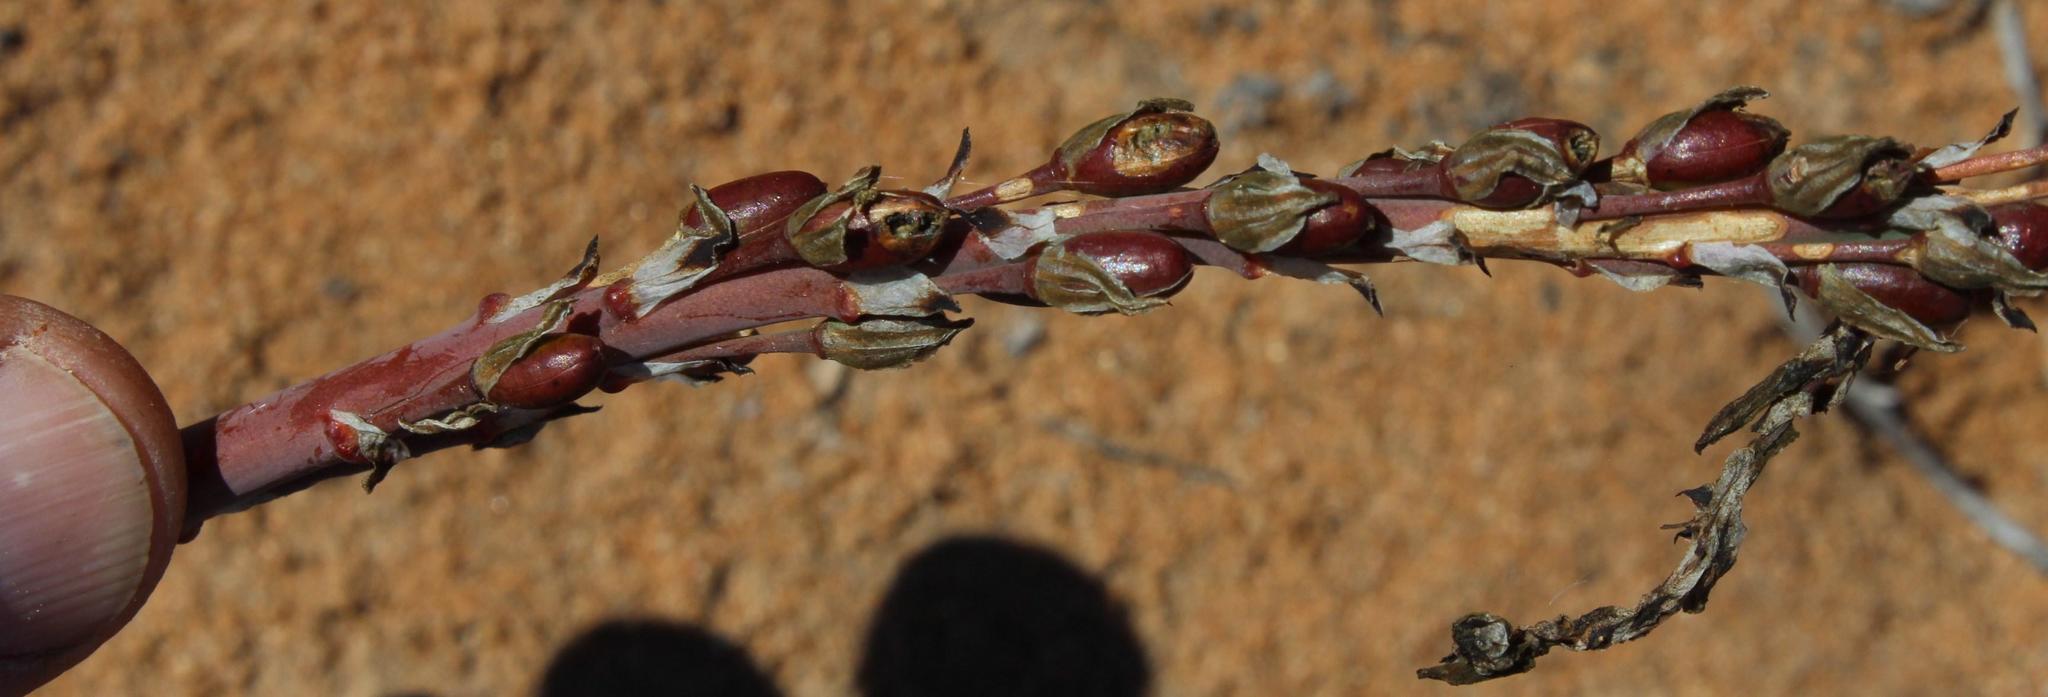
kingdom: Plantae
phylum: Tracheophyta
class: Liliopsida
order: Asparagales
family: Asphodelaceae
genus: Trachyandra
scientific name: Trachyandra falcata
